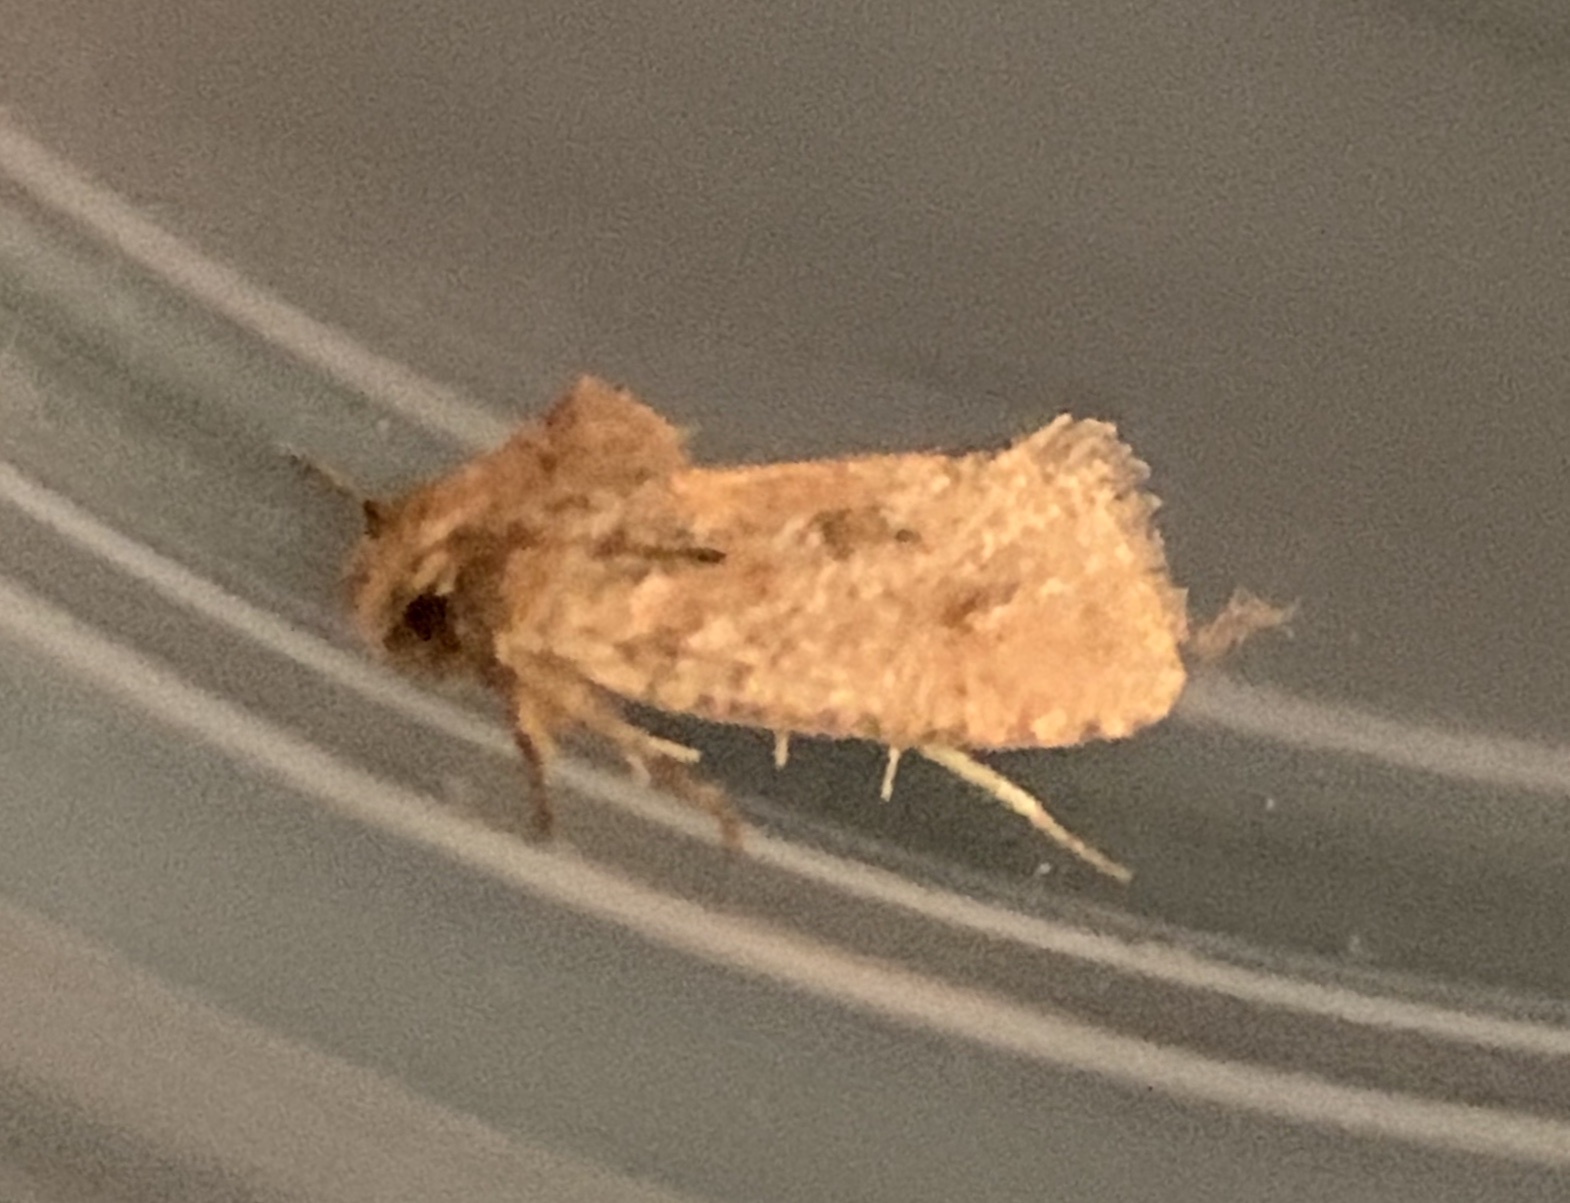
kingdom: Animalia
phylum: Arthropoda
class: Insecta
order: Lepidoptera
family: Tineidae
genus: Acrolophus
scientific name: Acrolophus plumifrontella
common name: Eastern grass tubeworm moth
